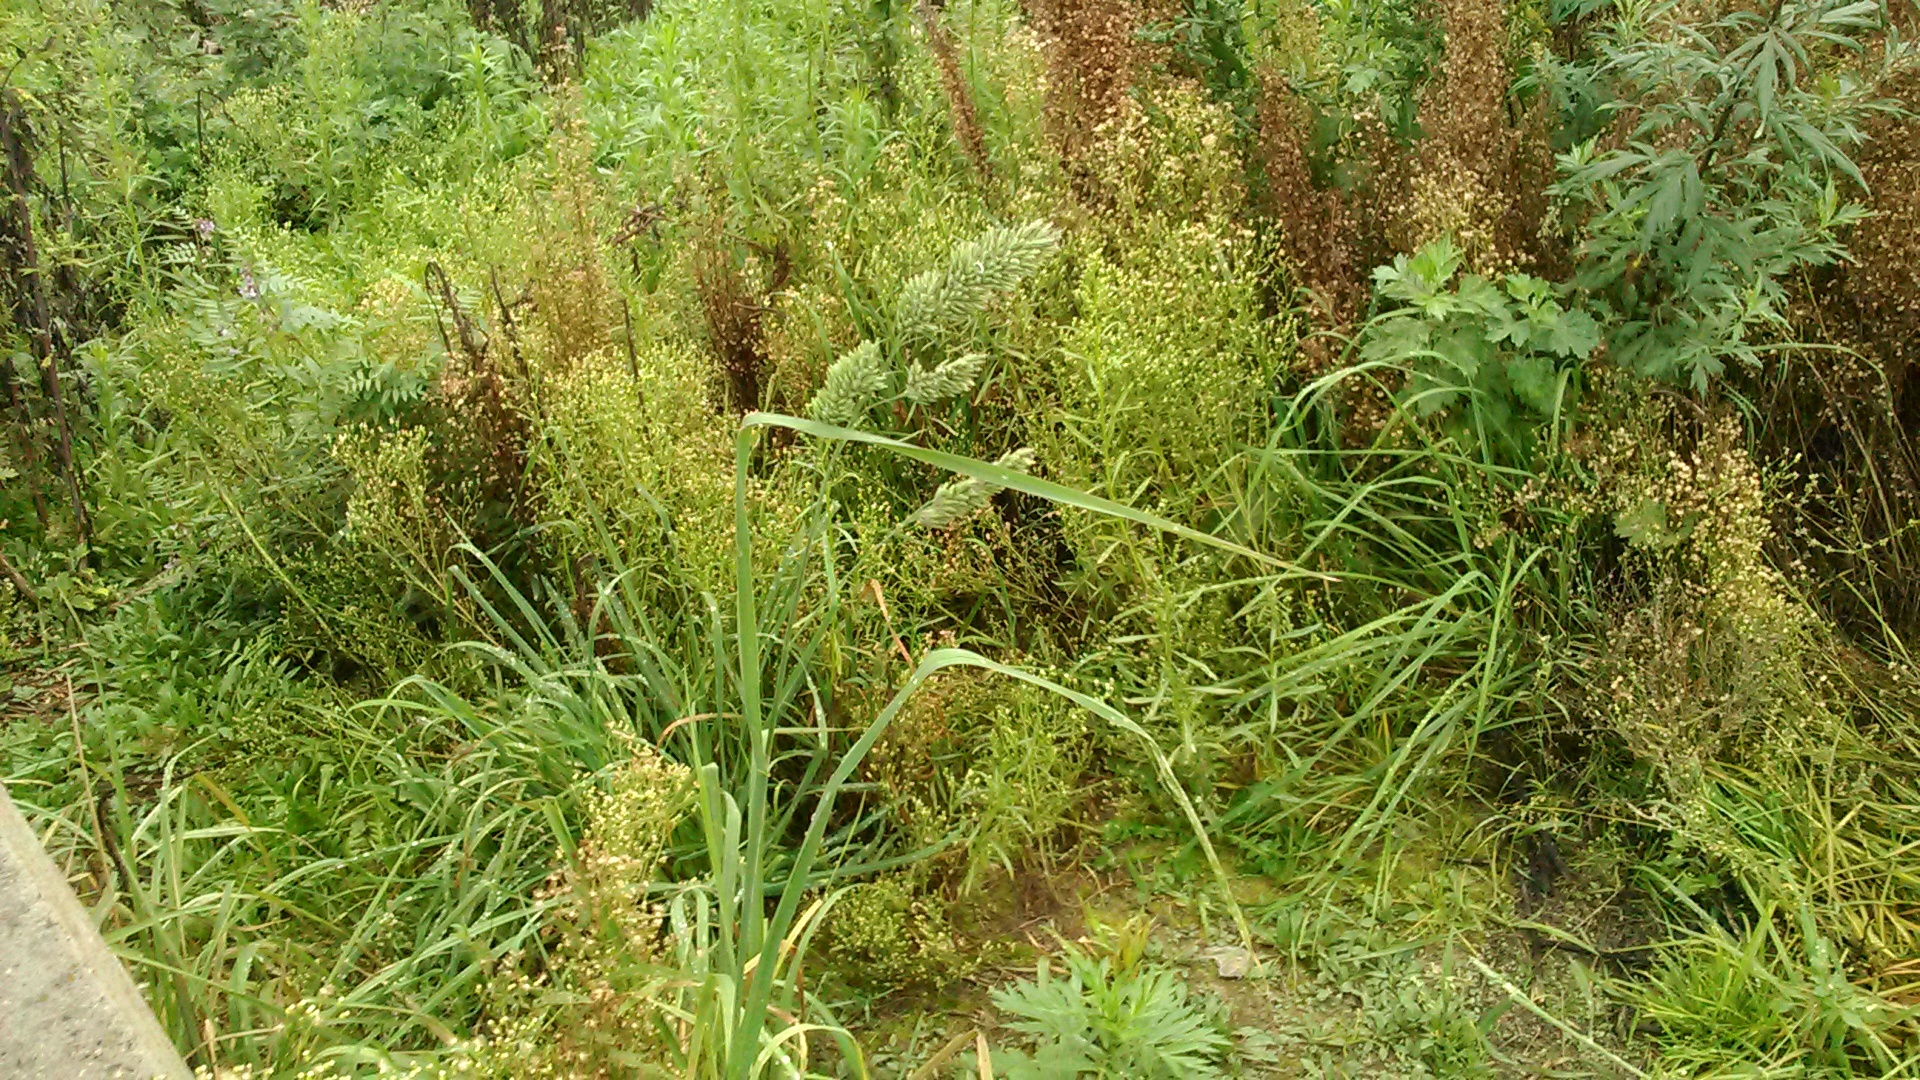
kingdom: Plantae
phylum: Tracheophyta
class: Liliopsida
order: Poales
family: Poaceae
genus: Dactylis
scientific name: Dactylis glomerata
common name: Orchardgrass
